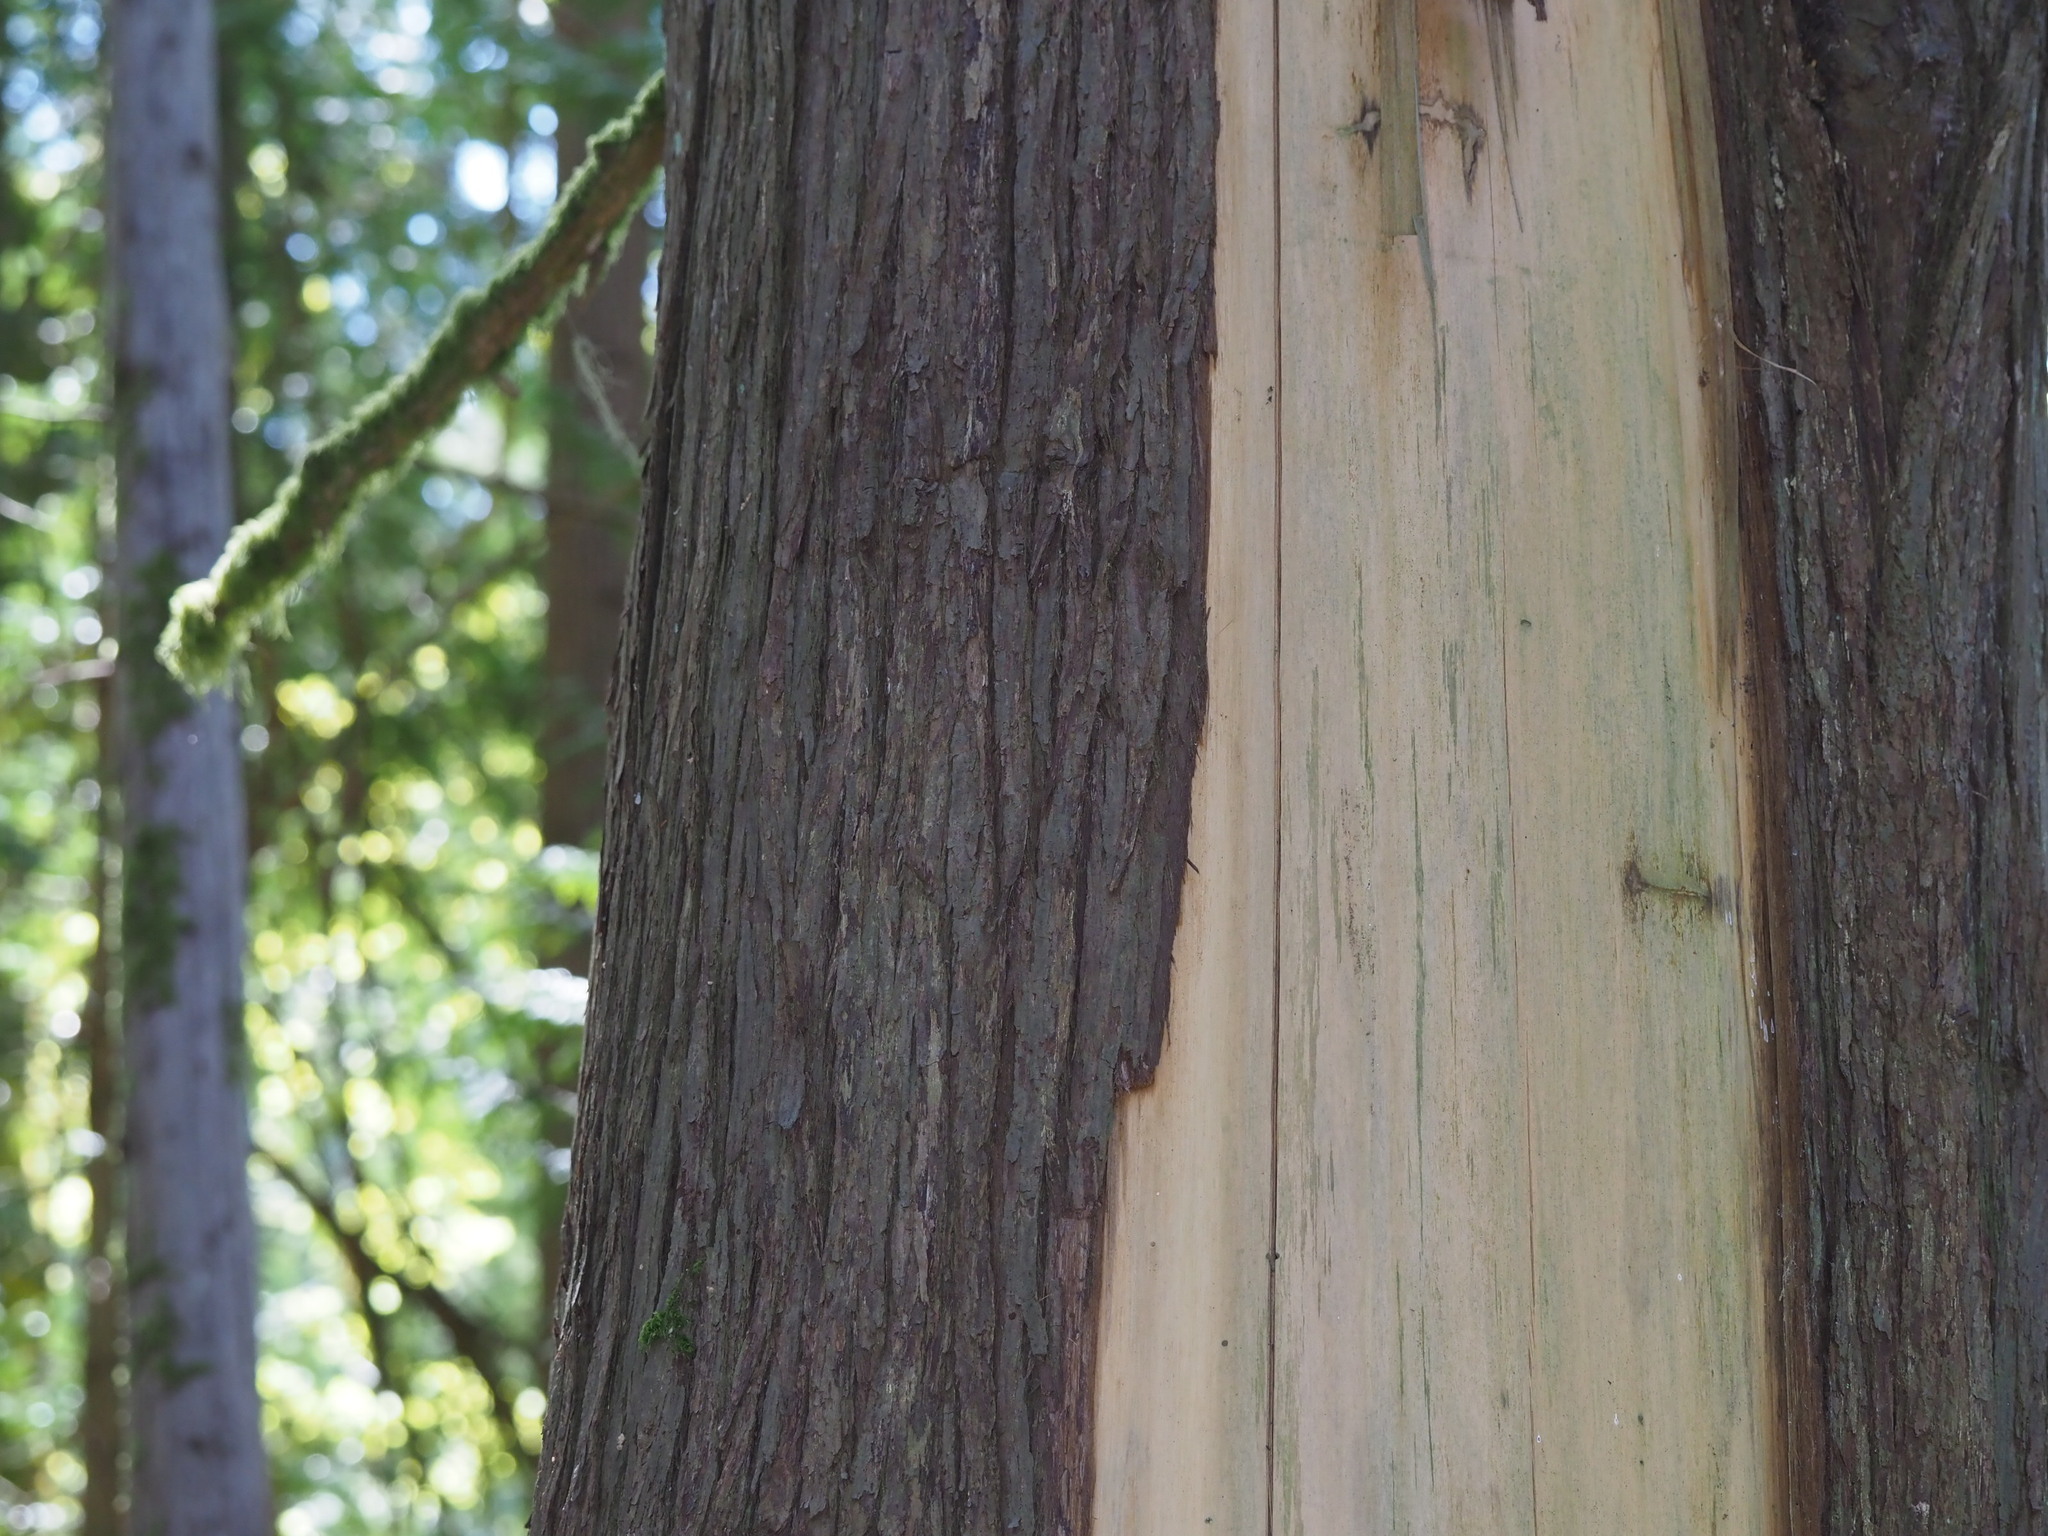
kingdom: Plantae
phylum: Tracheophyta
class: Pinopsida
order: Pinales
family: Cupressaceae
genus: Thuja
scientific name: Thuja plicata
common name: Western red-cedar
